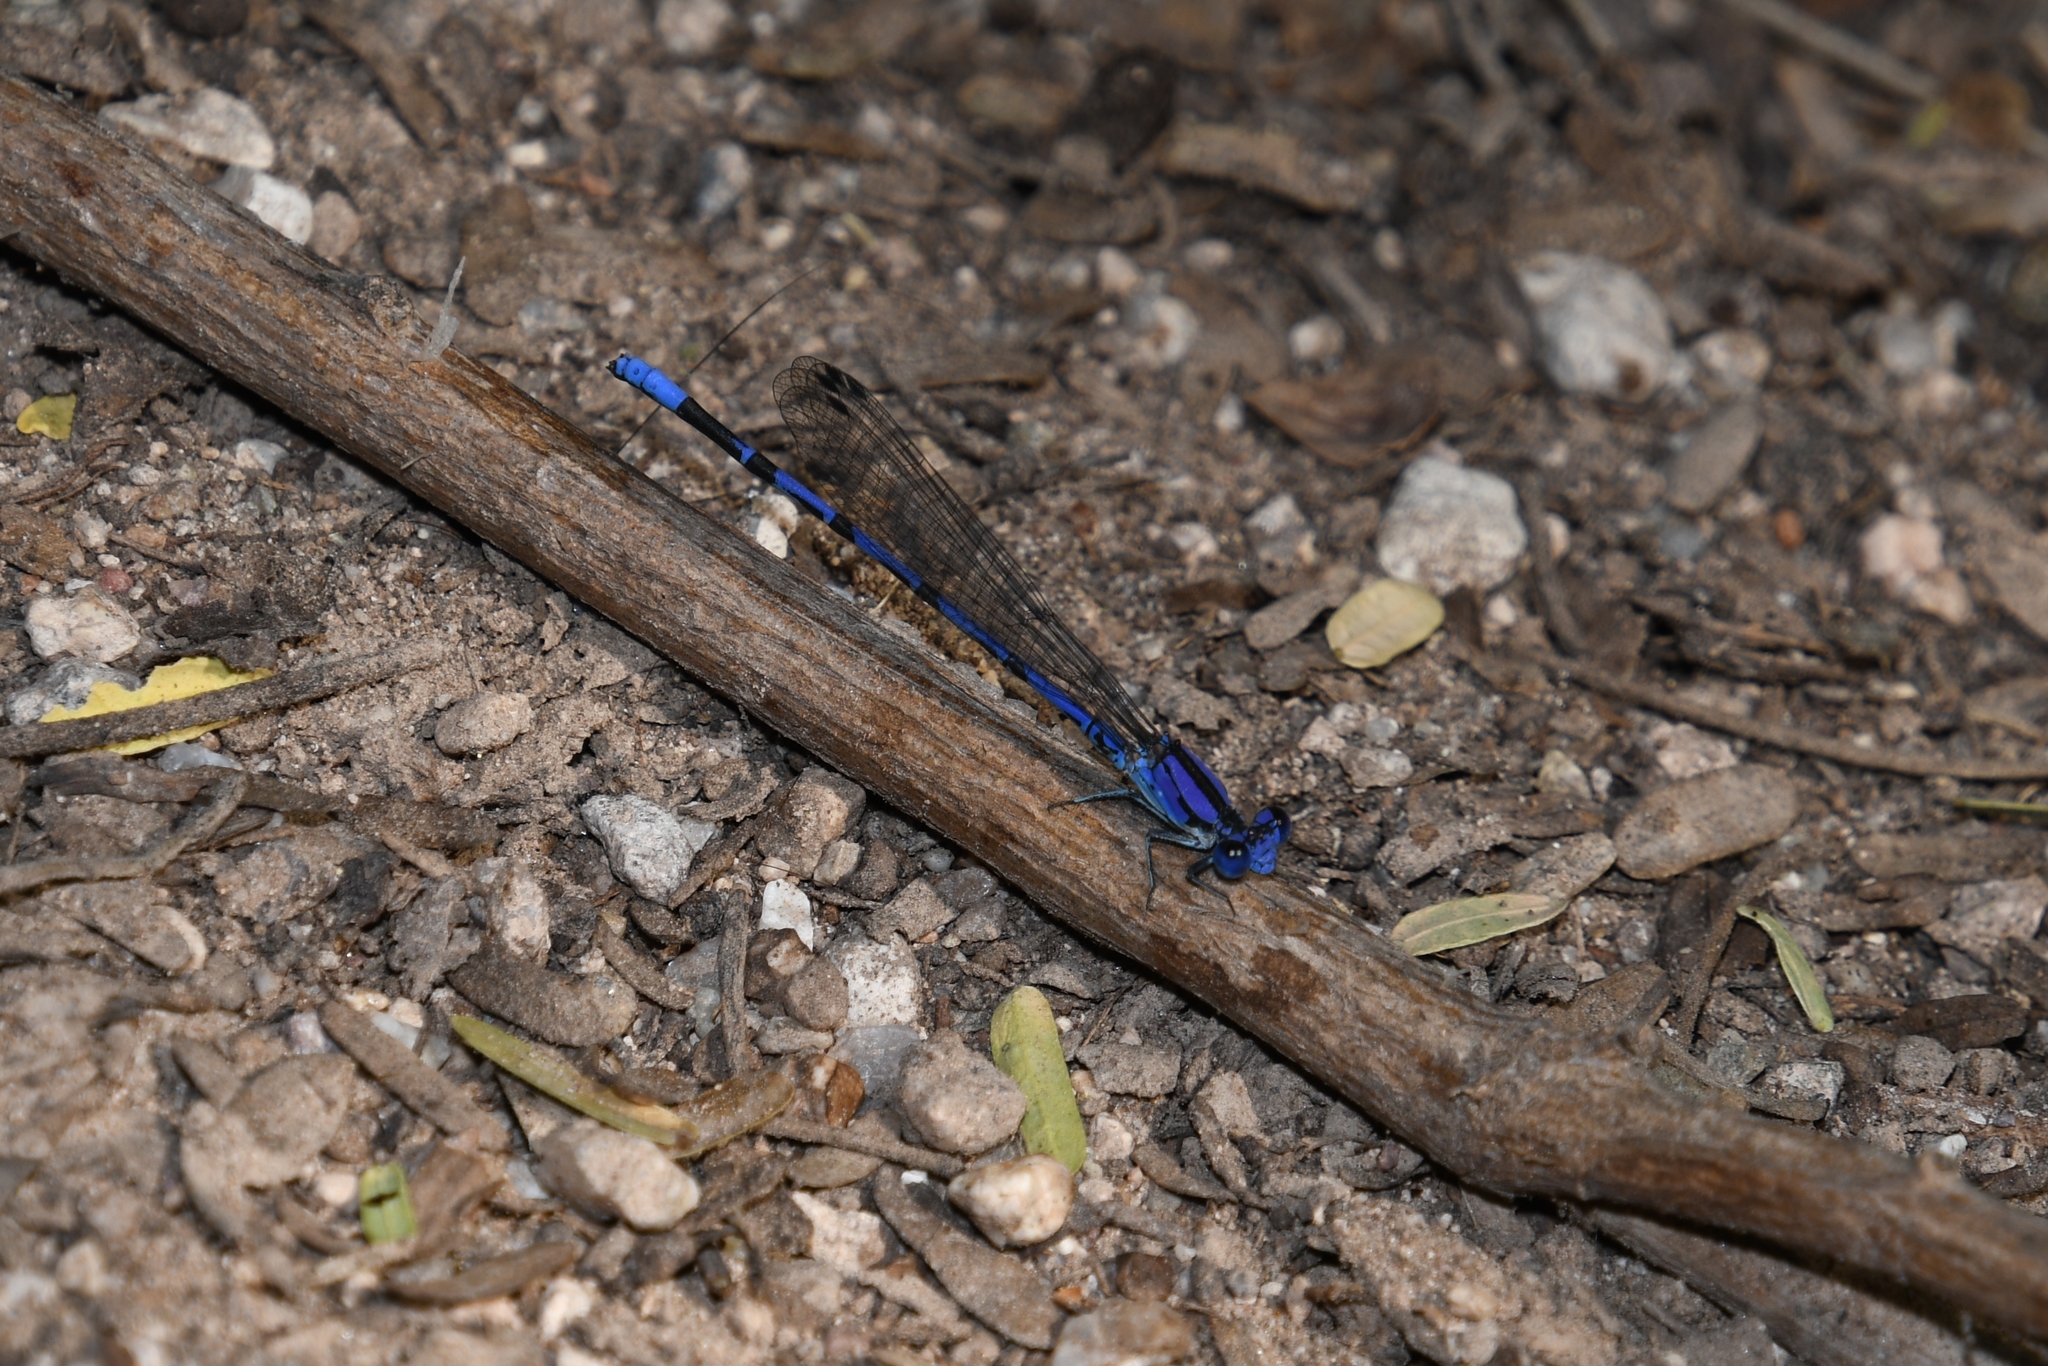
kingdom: Animalia
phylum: Arthropoda
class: Insecta
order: Odonata
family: Coenagrionidae
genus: Argia
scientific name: Argia extranea
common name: Spine-tipped dancer
